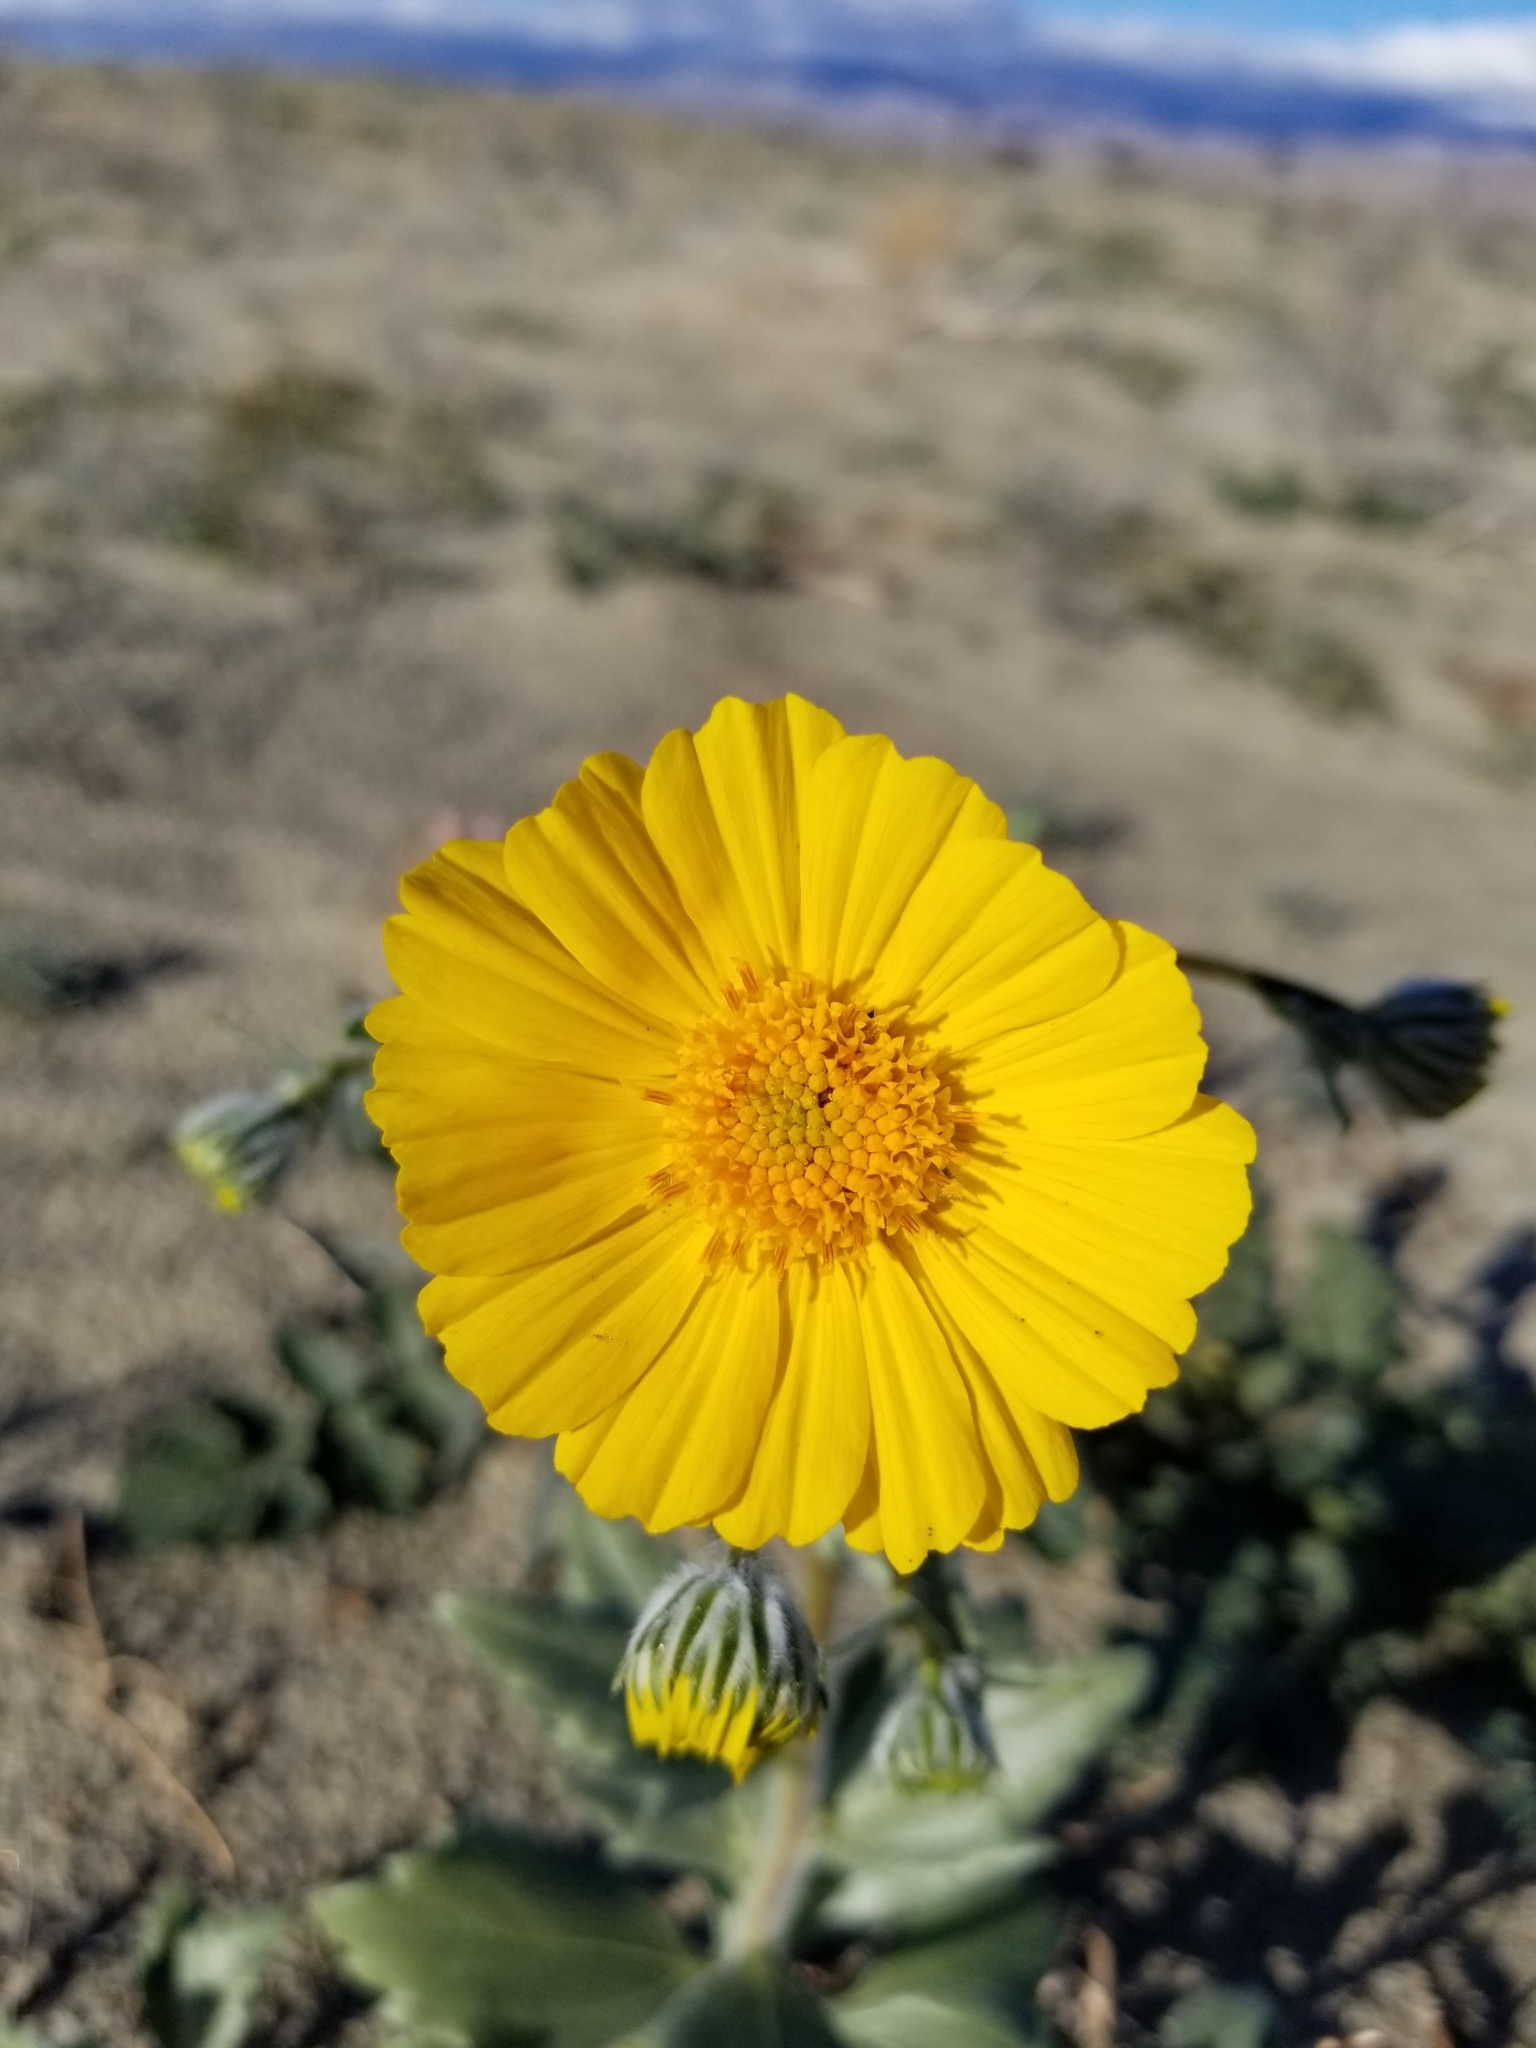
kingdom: Plantae
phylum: Tracheophyta
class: Magnoliopsida
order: Asterales
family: Asteraceae
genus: Geraea
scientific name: Geraea canescens
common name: Desert-gold
